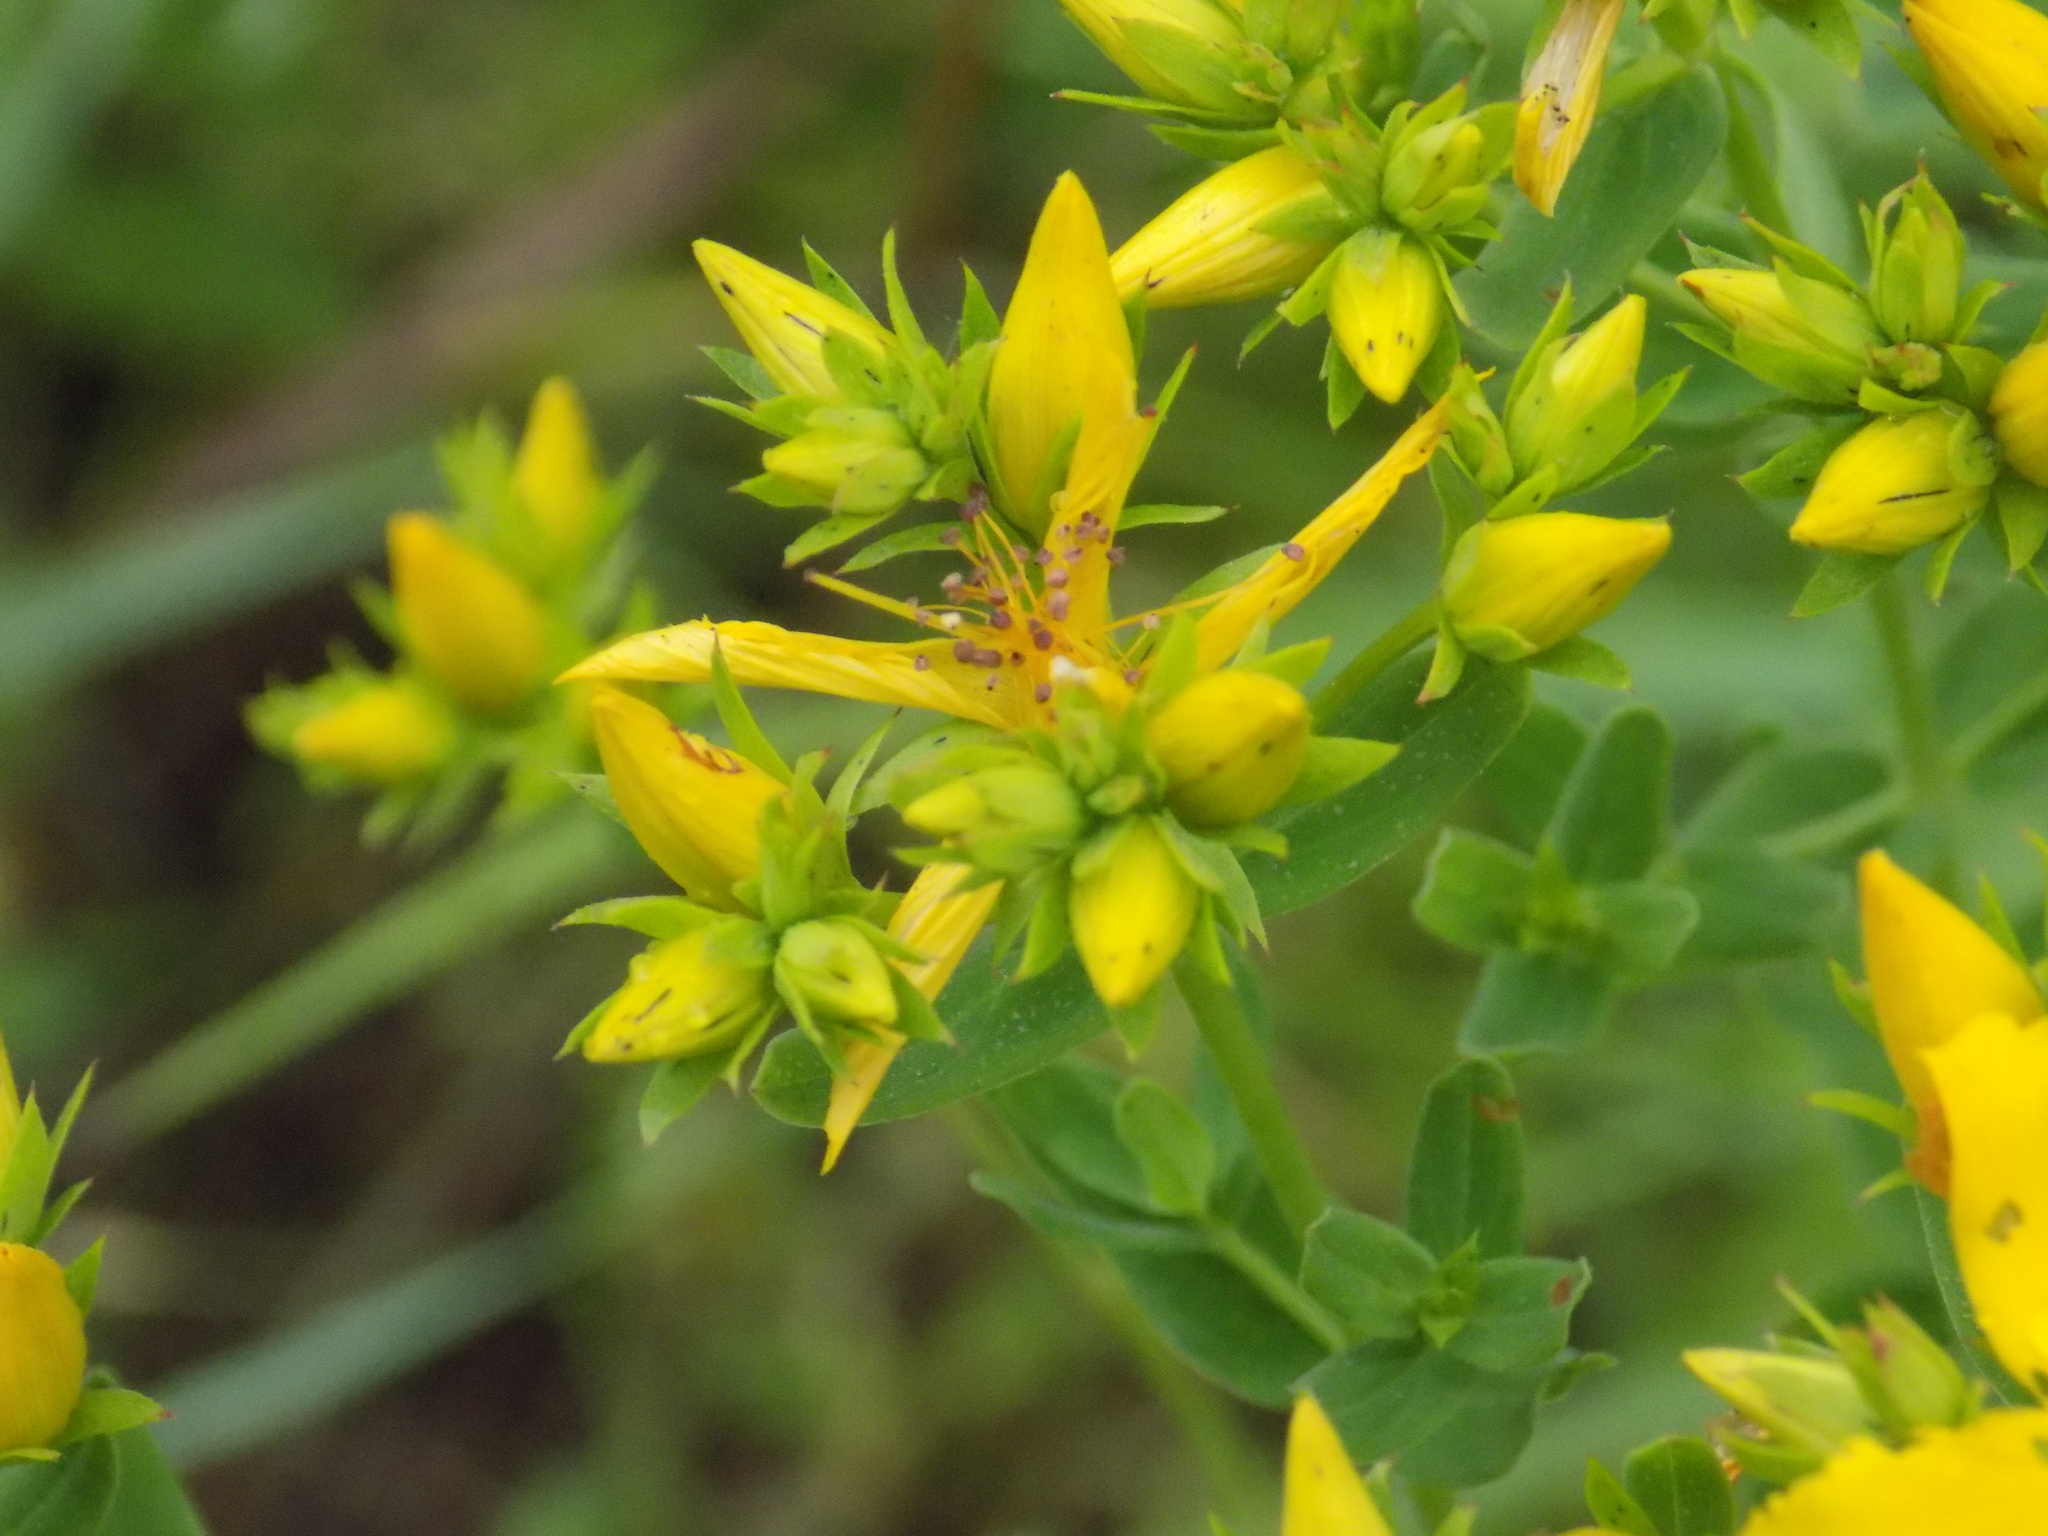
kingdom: Plantae
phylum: Tracheophyta
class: Magnoliopsida
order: Malpighiales
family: Hypericaceae
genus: Hypericum
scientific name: Hypericum perforatum
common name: Common st. johnswort
